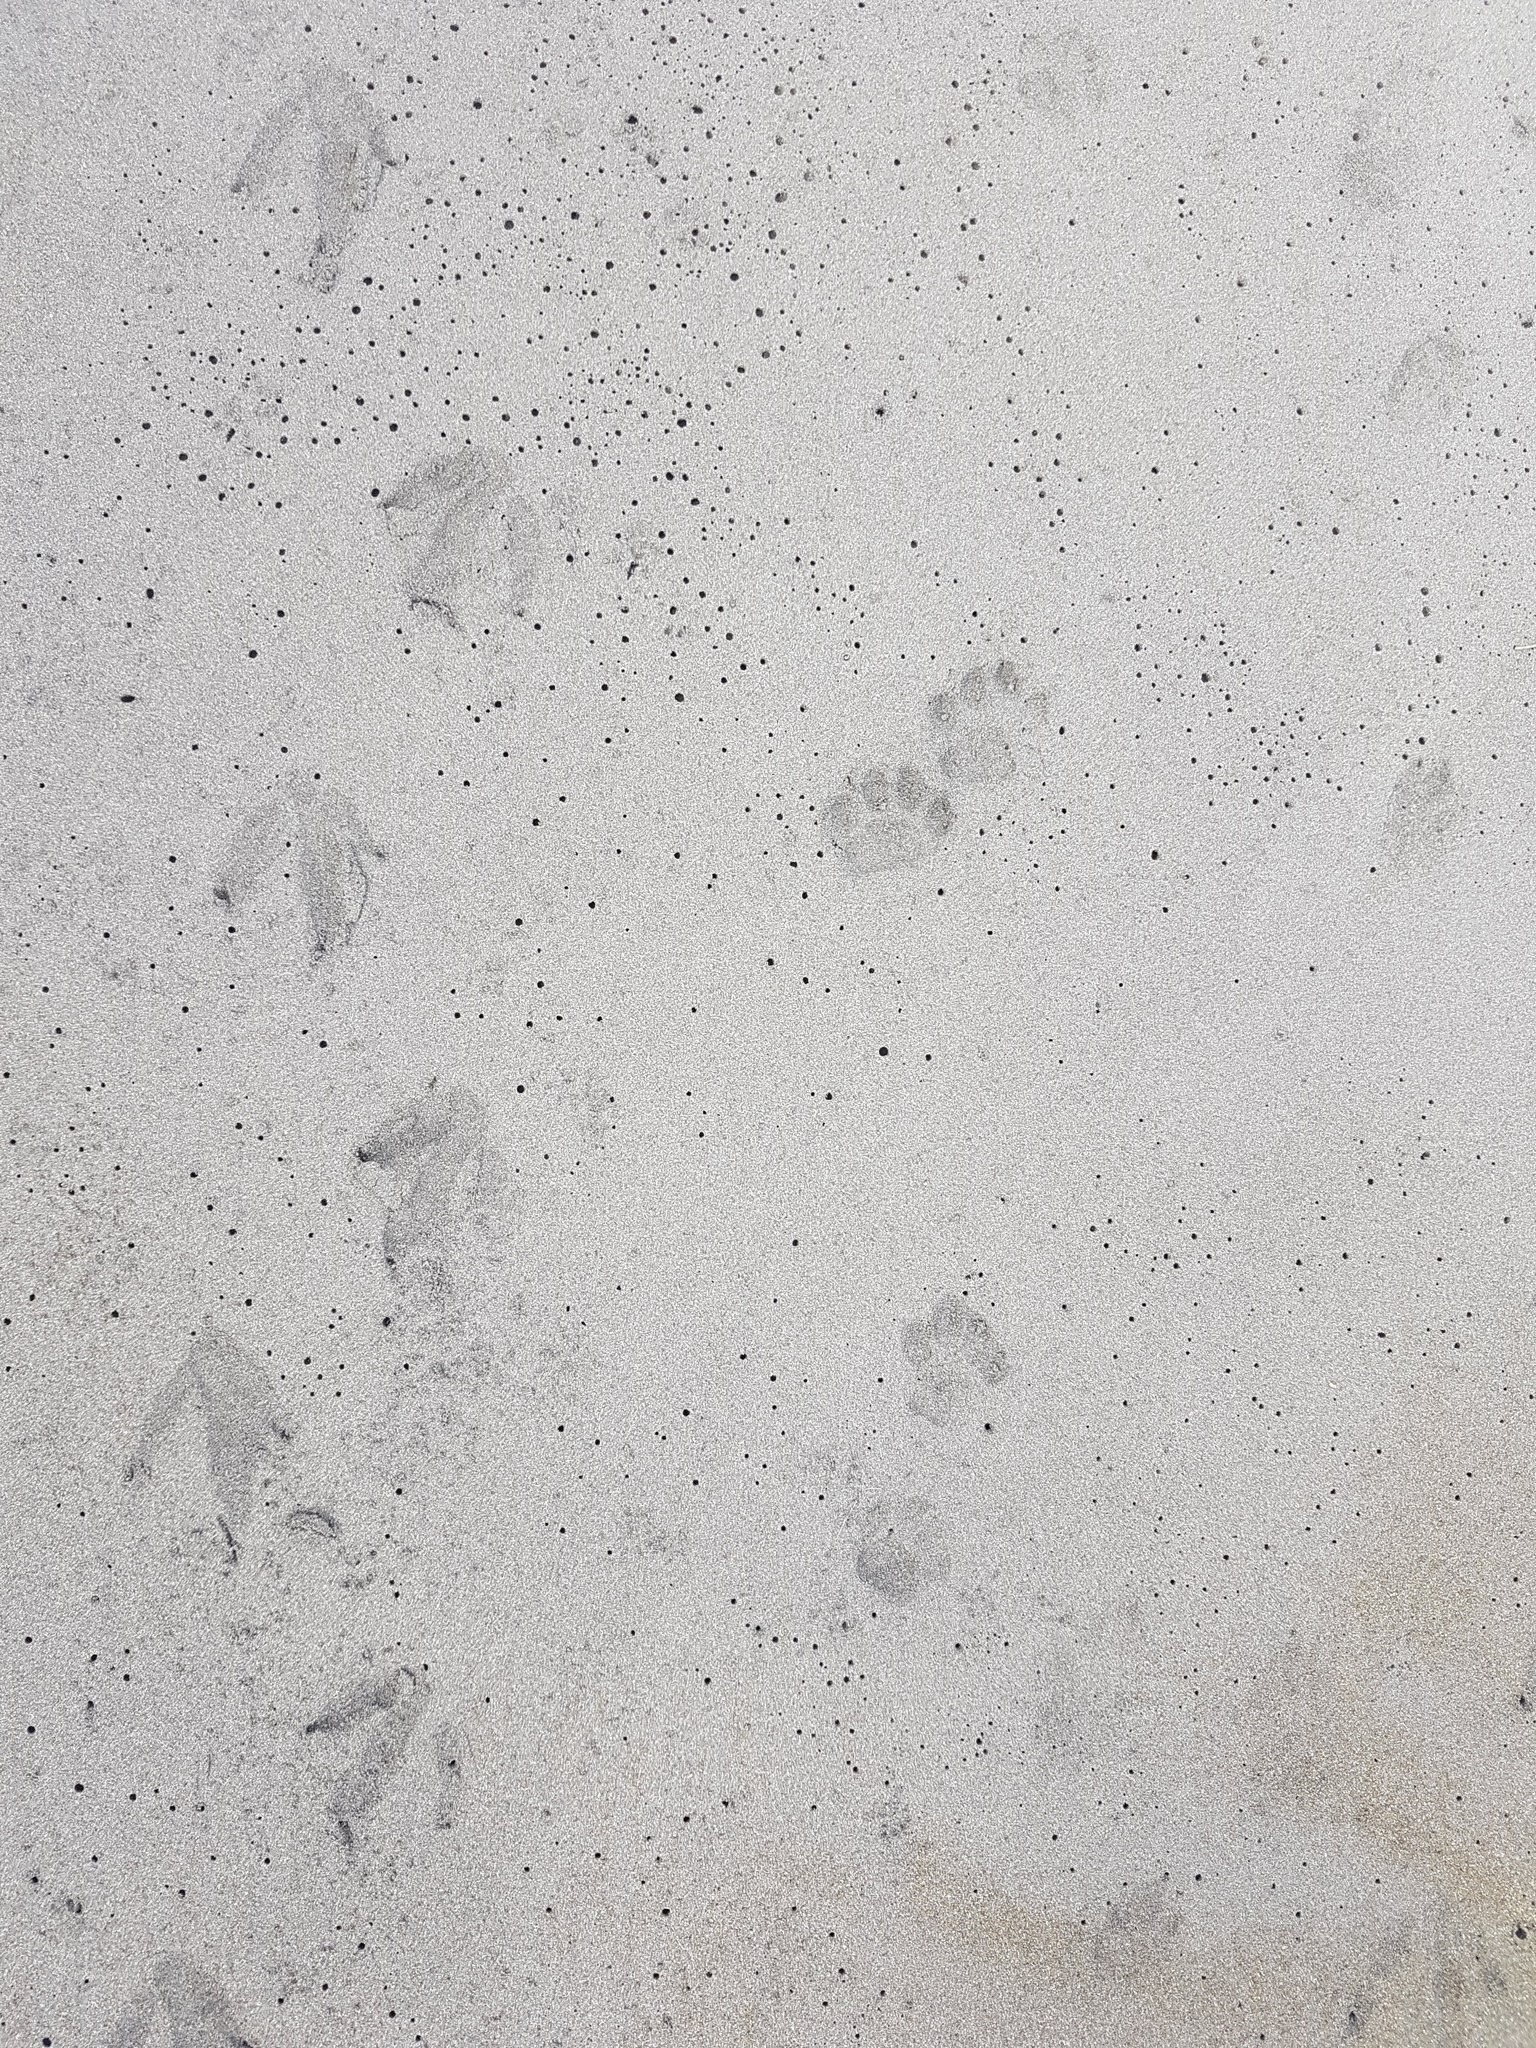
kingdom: Animalia
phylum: Chordata
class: Mammalia
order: Carnivora
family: Felidae
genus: Felis
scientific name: Felis catus
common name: Domestic cat
